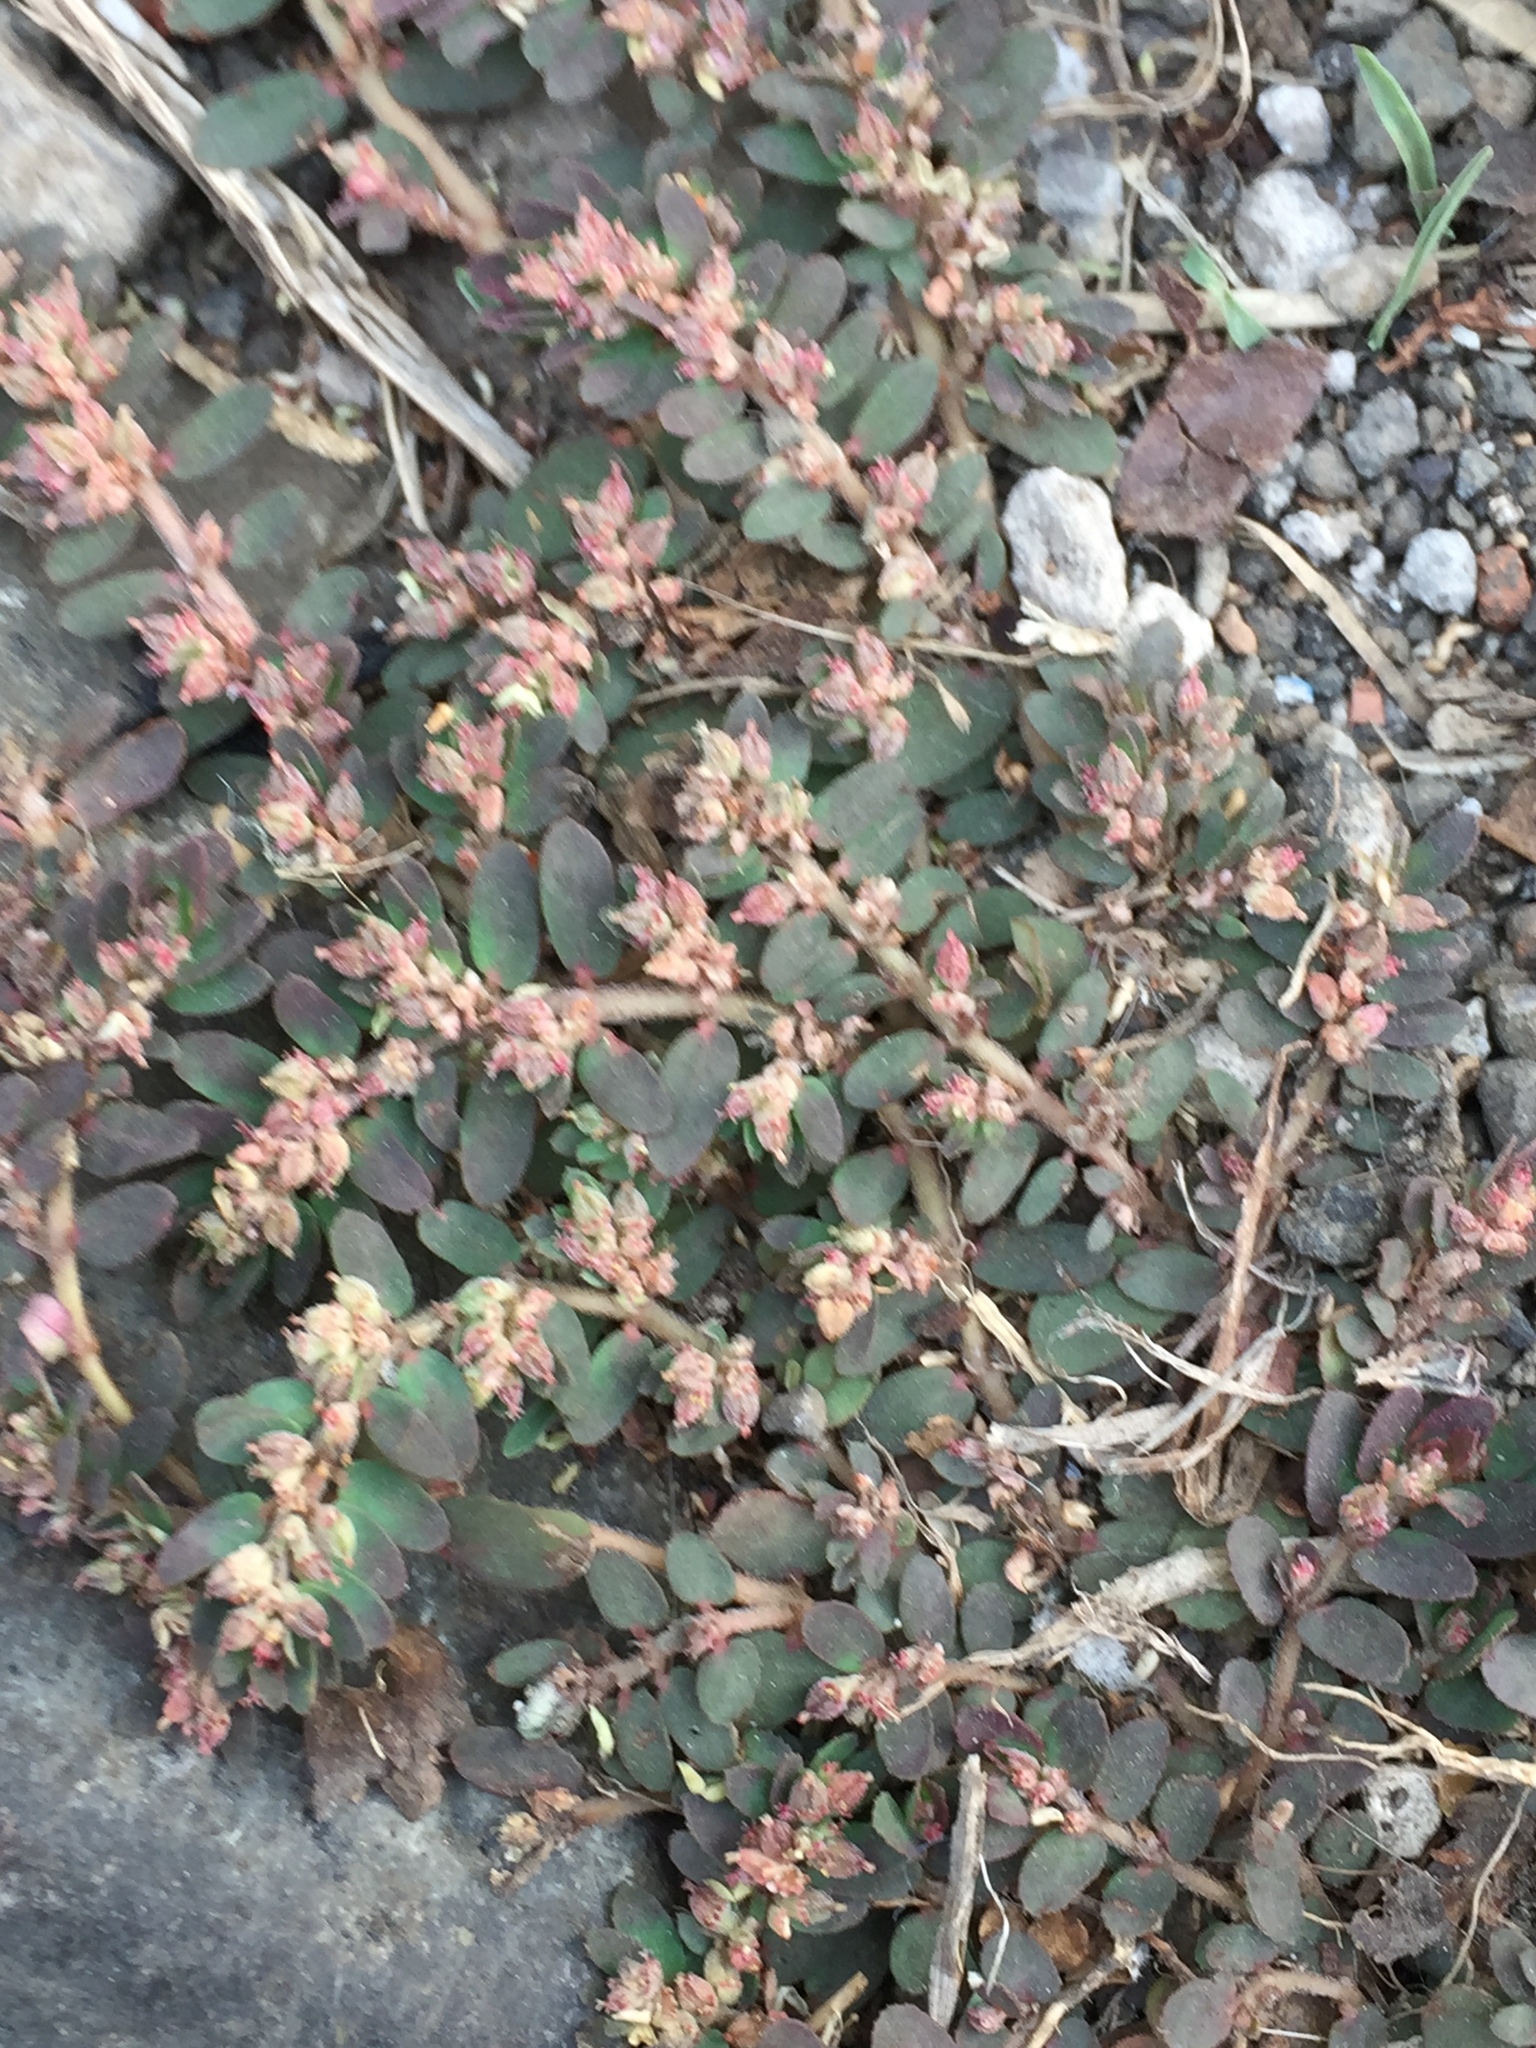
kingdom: Plantae
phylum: Tracheophyta
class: Magnoliopsida
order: Malpighiales
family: Euphorbiaceae
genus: Euphorbia
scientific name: Euphorbia thymifolia
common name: Gulf sandmat
